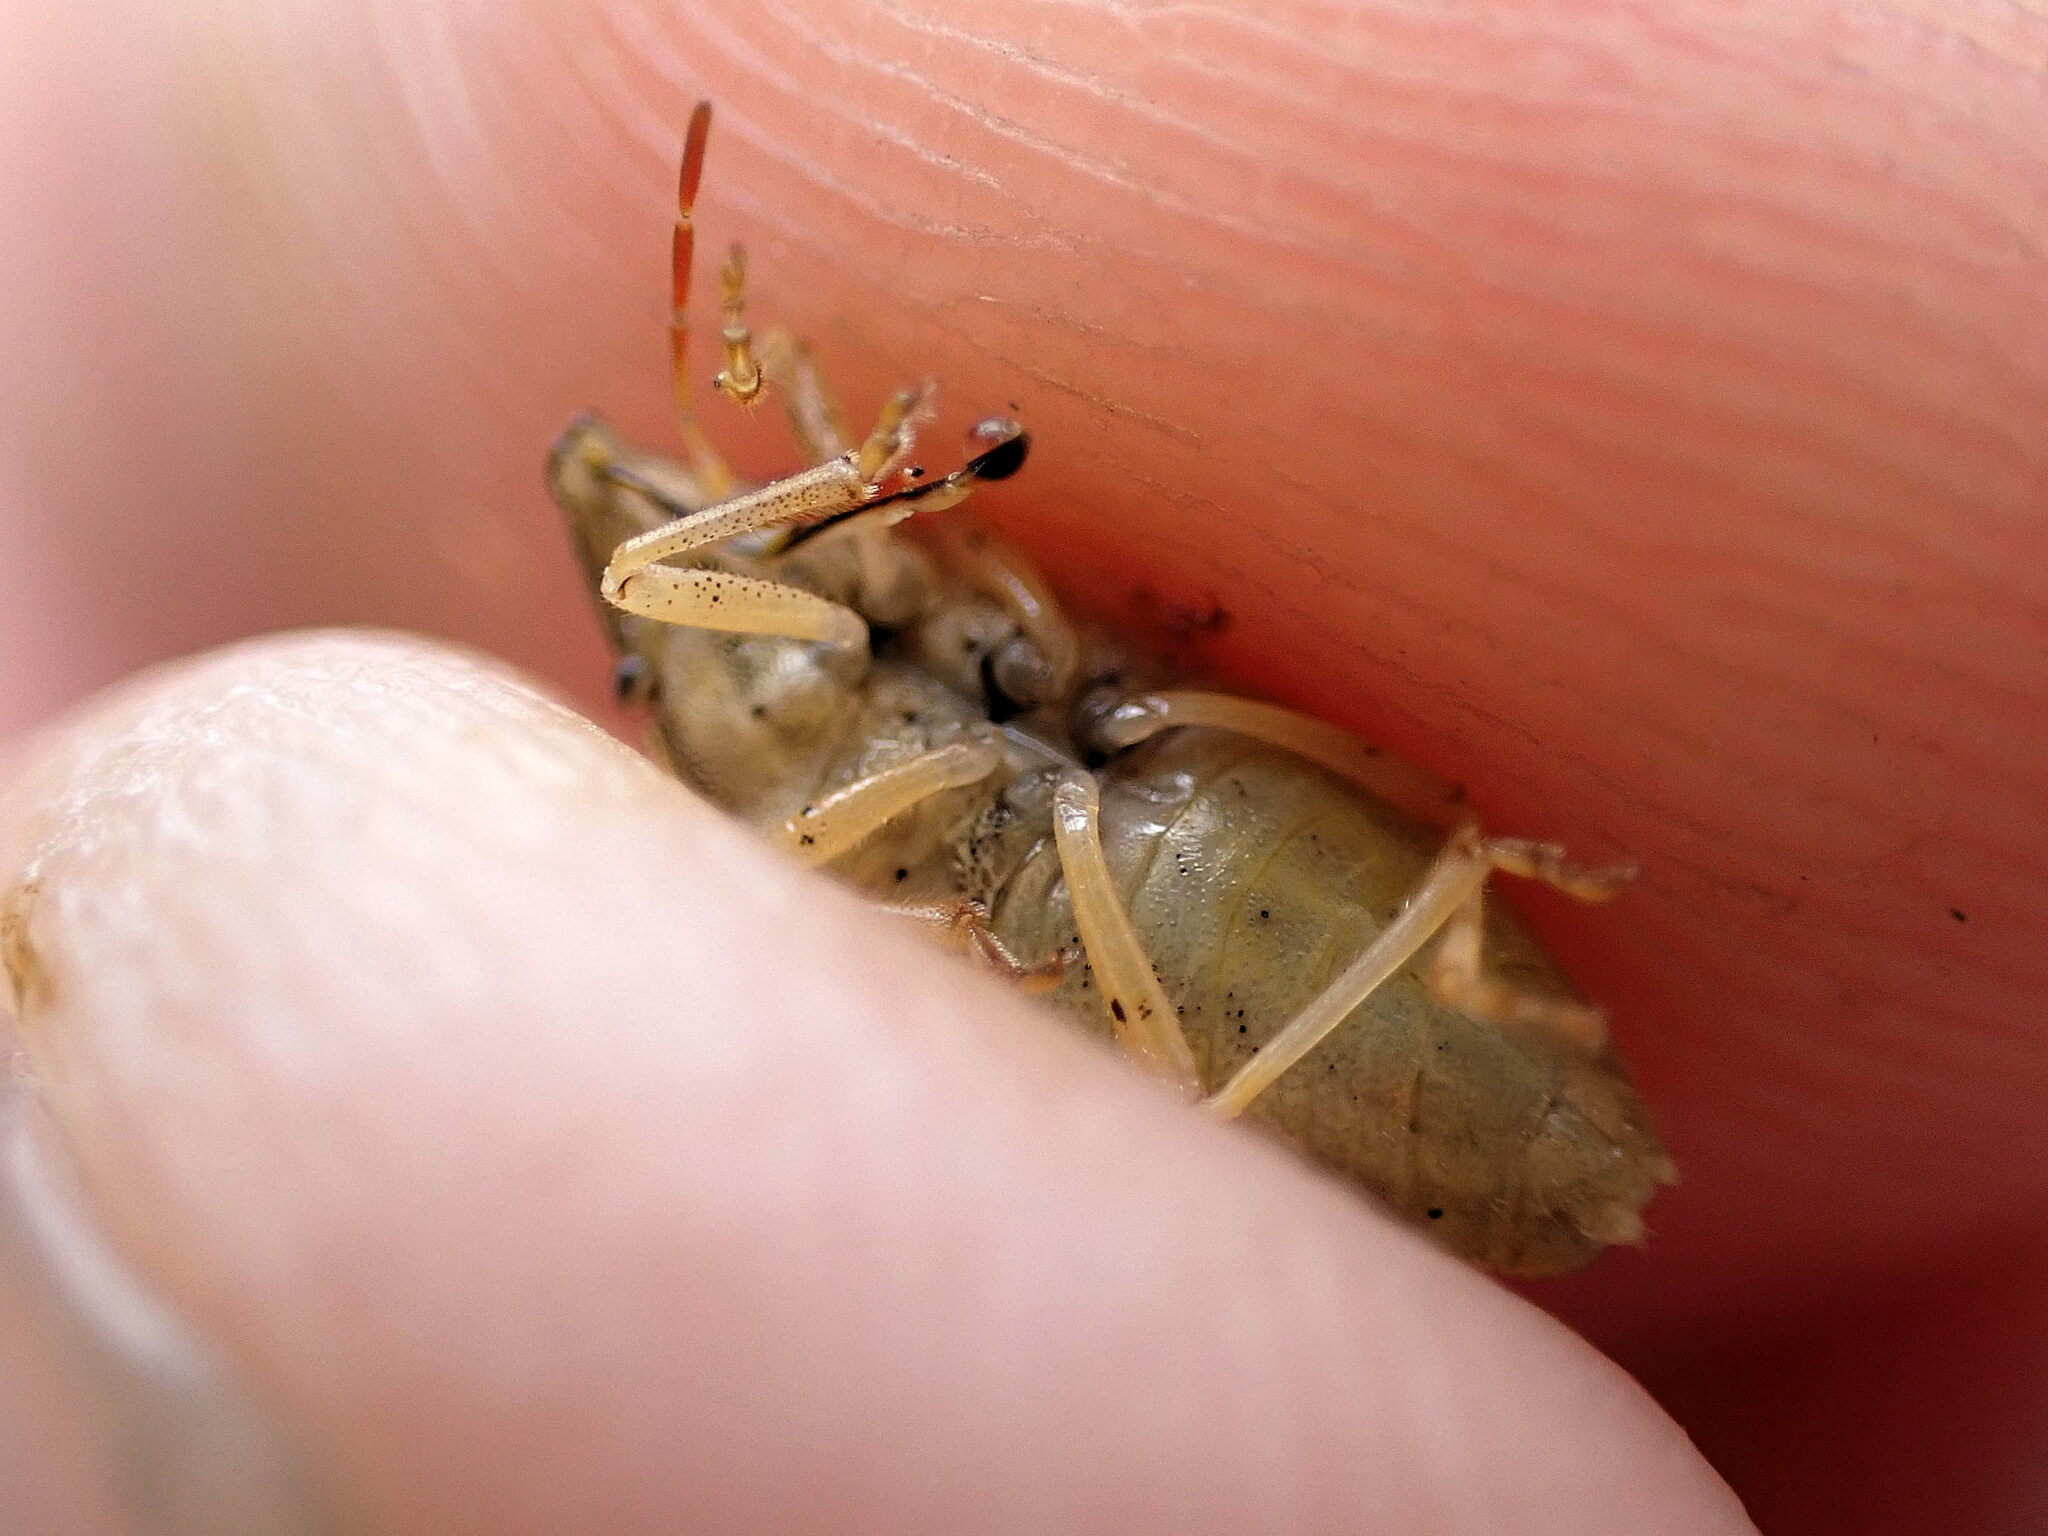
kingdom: Animalia
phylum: Arthropoda
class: Insecta
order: Hemiptera
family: Pentatomidae
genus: Aelia
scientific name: Aelia acuminata
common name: Bishop's mitre
